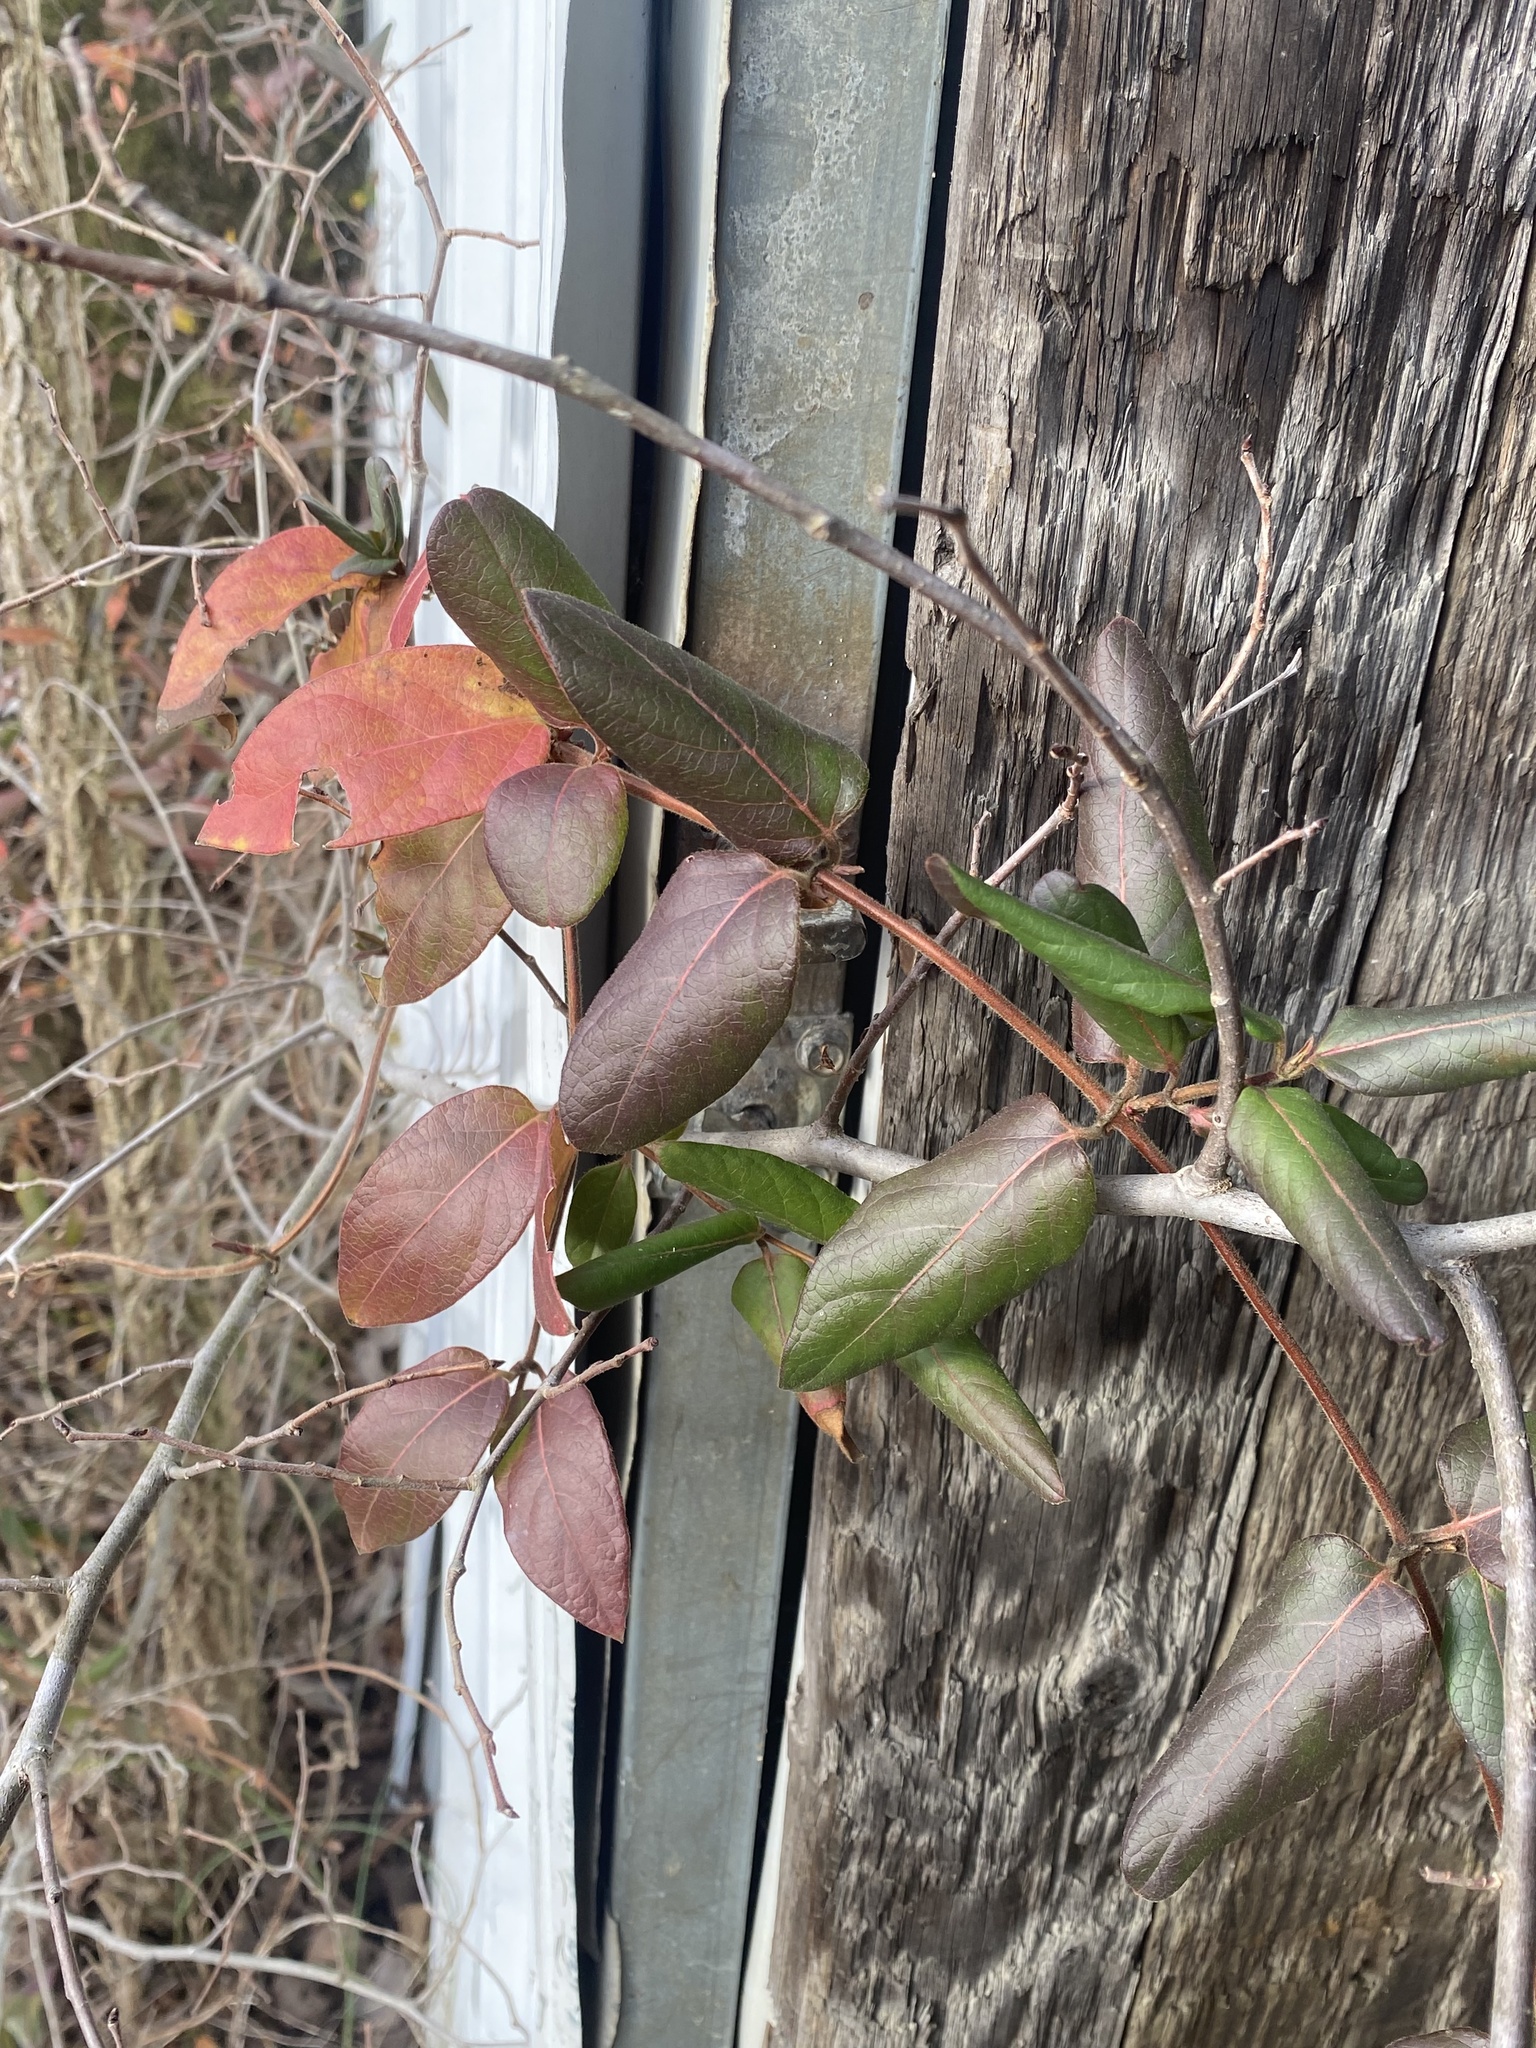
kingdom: Plantae
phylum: Tracheophyta
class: Magnoliopsida
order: Dipsacales
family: Caprifoliaceae
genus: Lonicera
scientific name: Lonicera japonica
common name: Japanese honeysuckle
